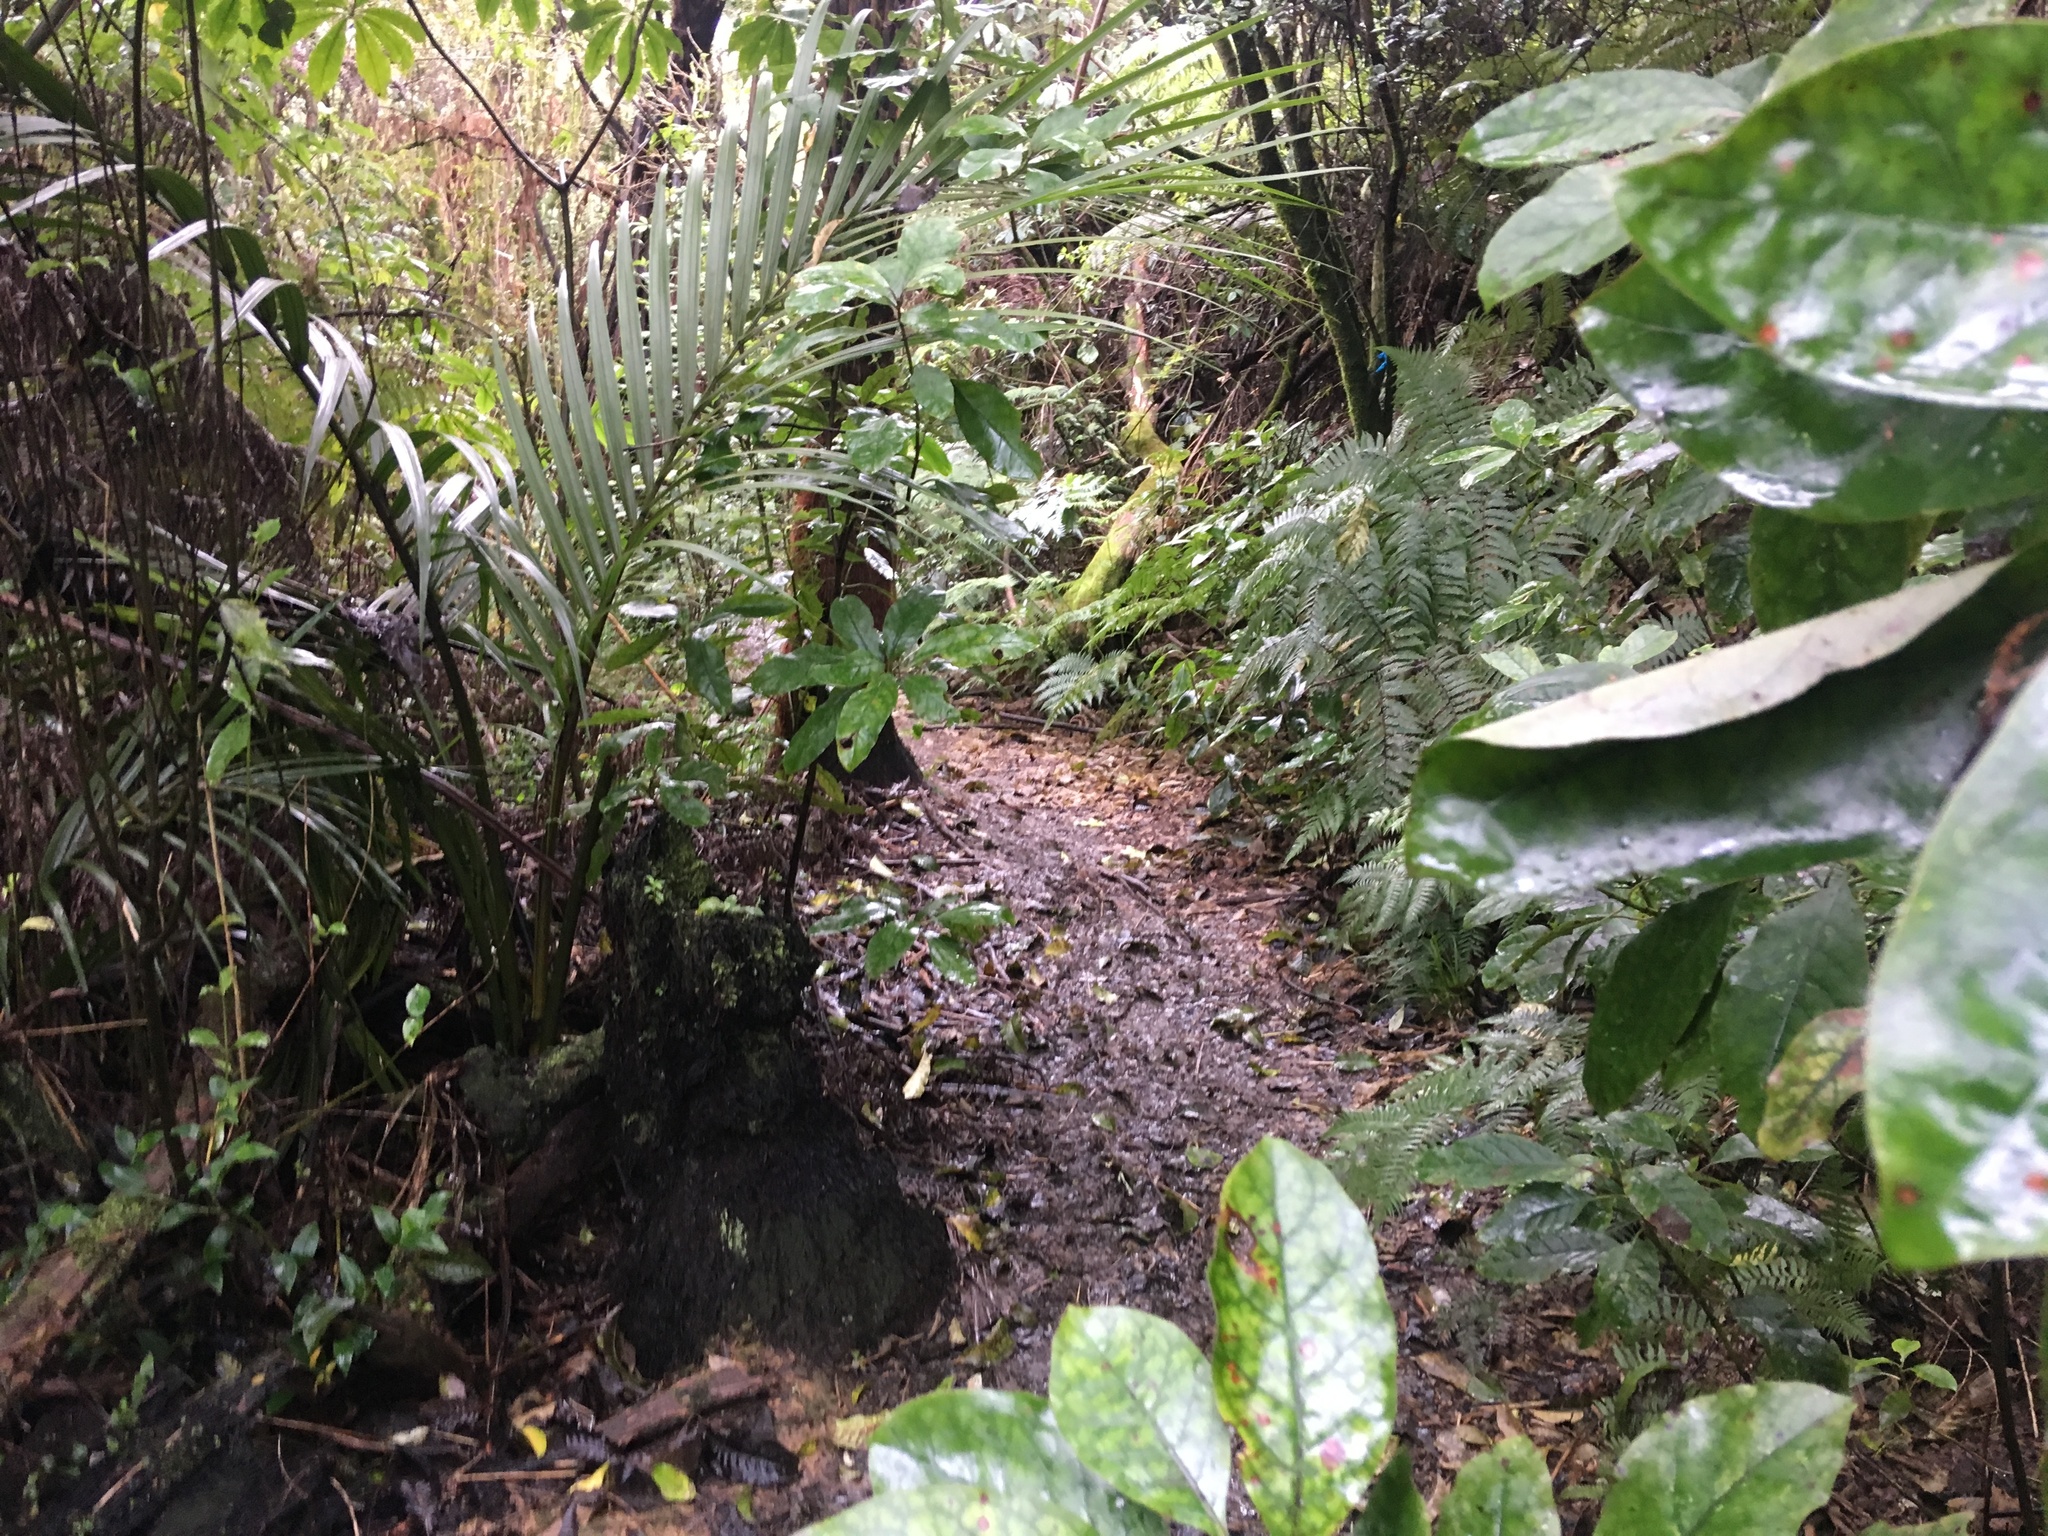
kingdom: Plantae
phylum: Tracheophyta
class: Liliopsida
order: Arecales
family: Arecaceae
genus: Rhopalostylis
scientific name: Rhopalostylis sapida
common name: Feather-duster palm
